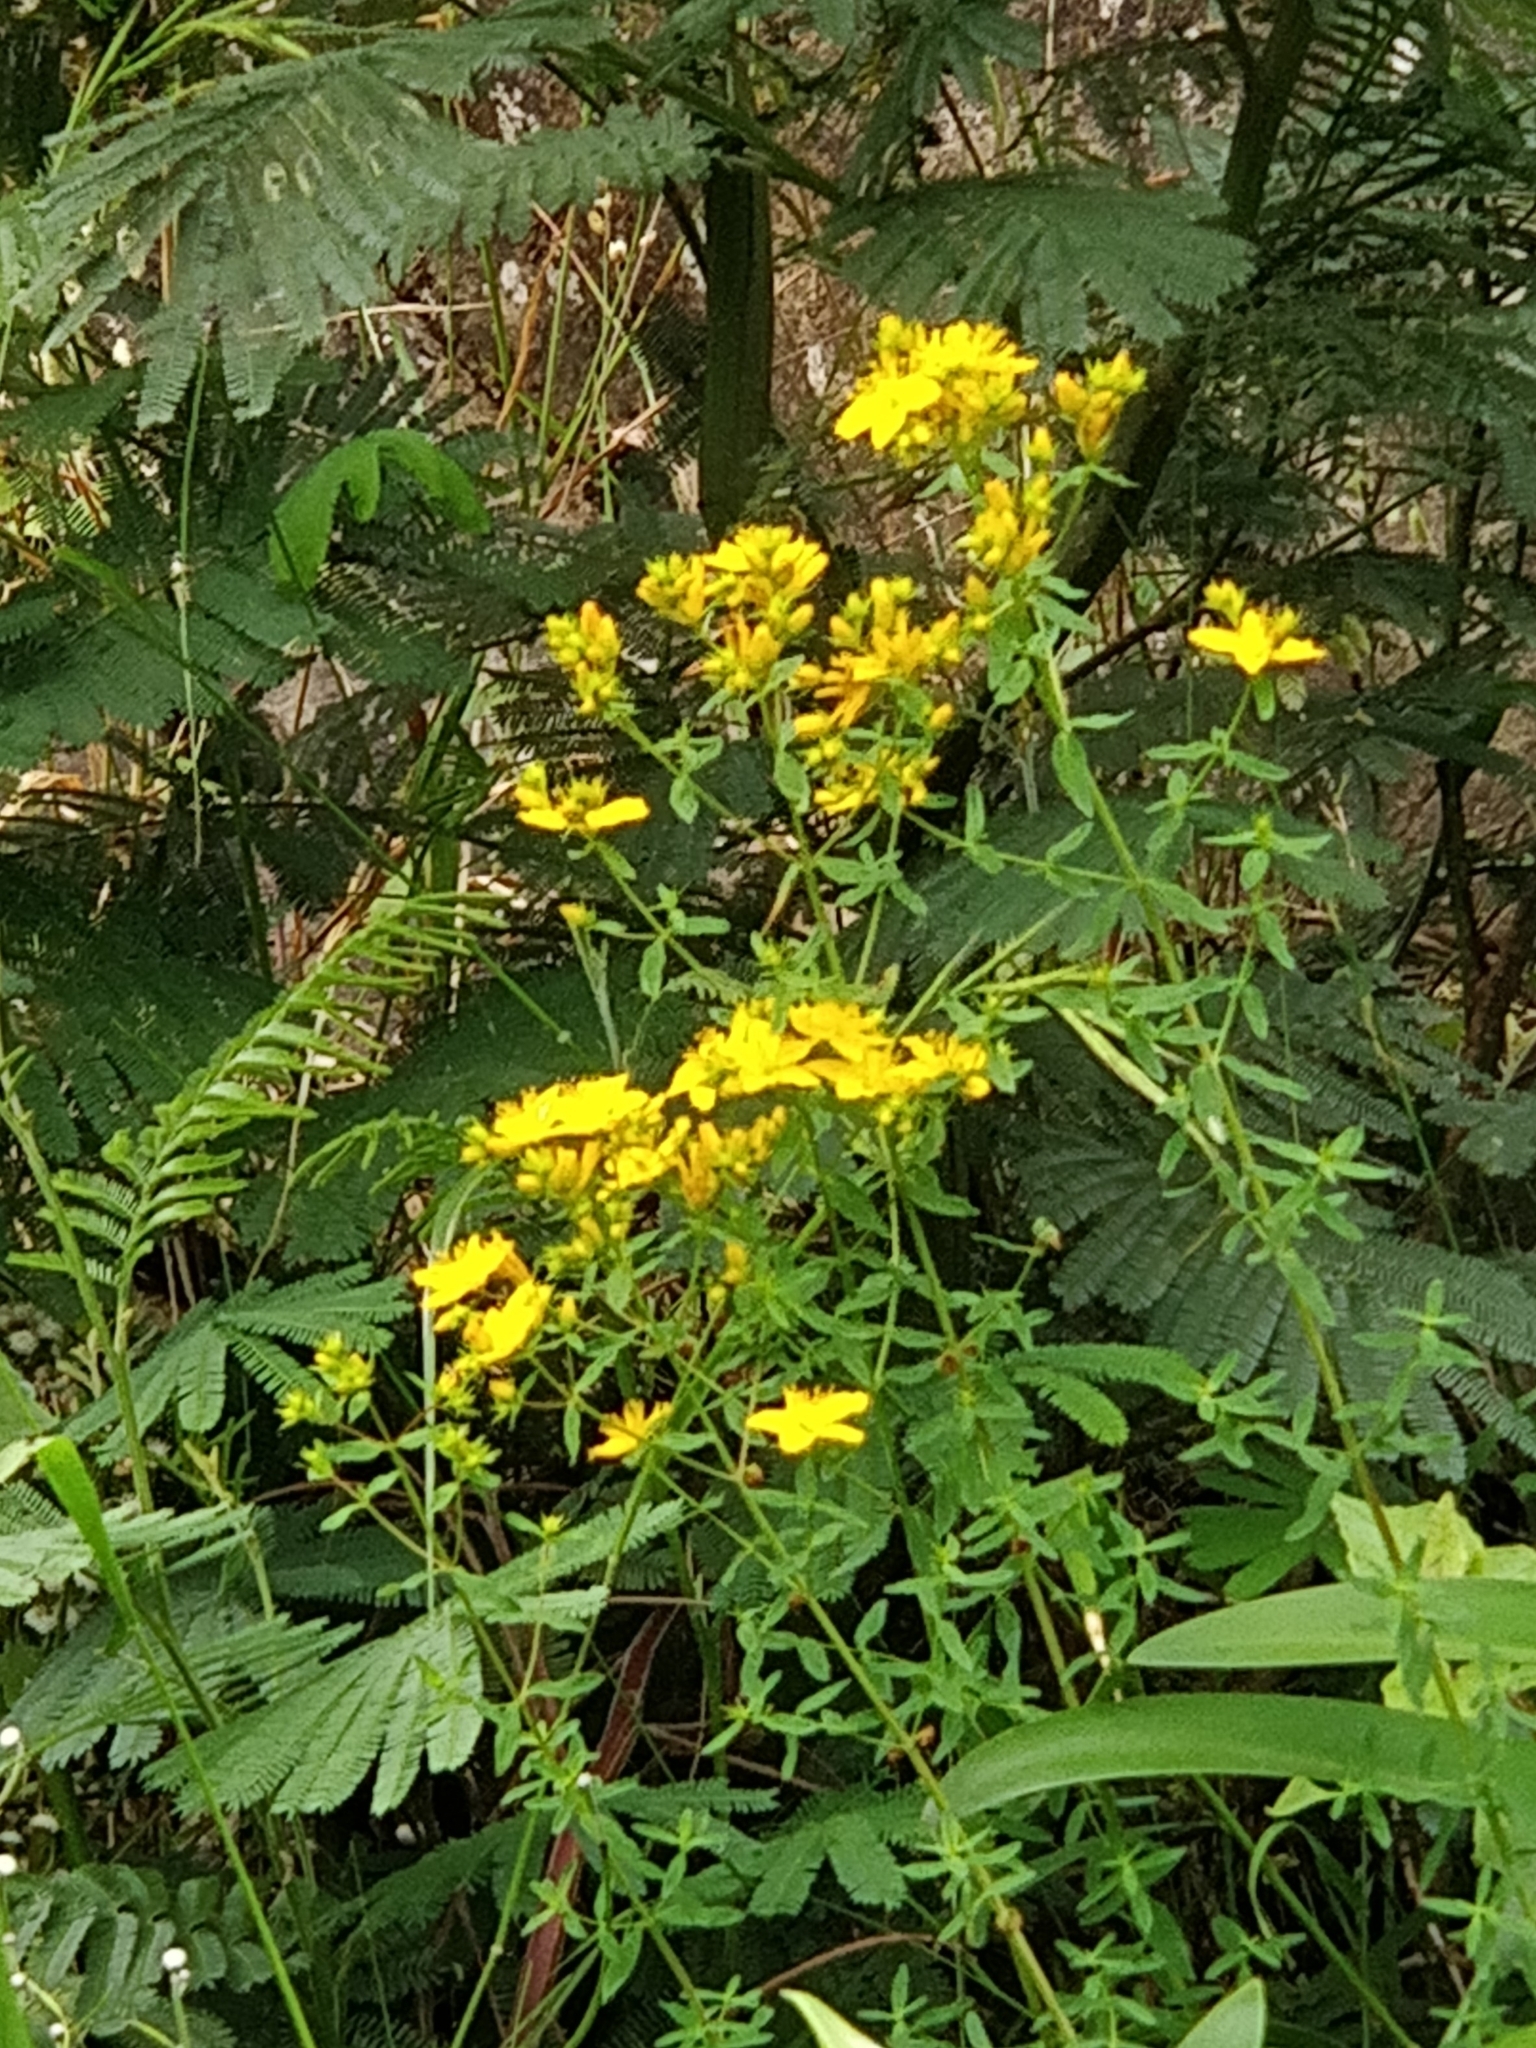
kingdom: Plantae
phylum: Tracheophyta
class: Magnoliopsida
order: Malpighiales
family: Hypericaceae
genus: Hypericum
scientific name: Hypericum perforatum
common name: Common st. johnswort
